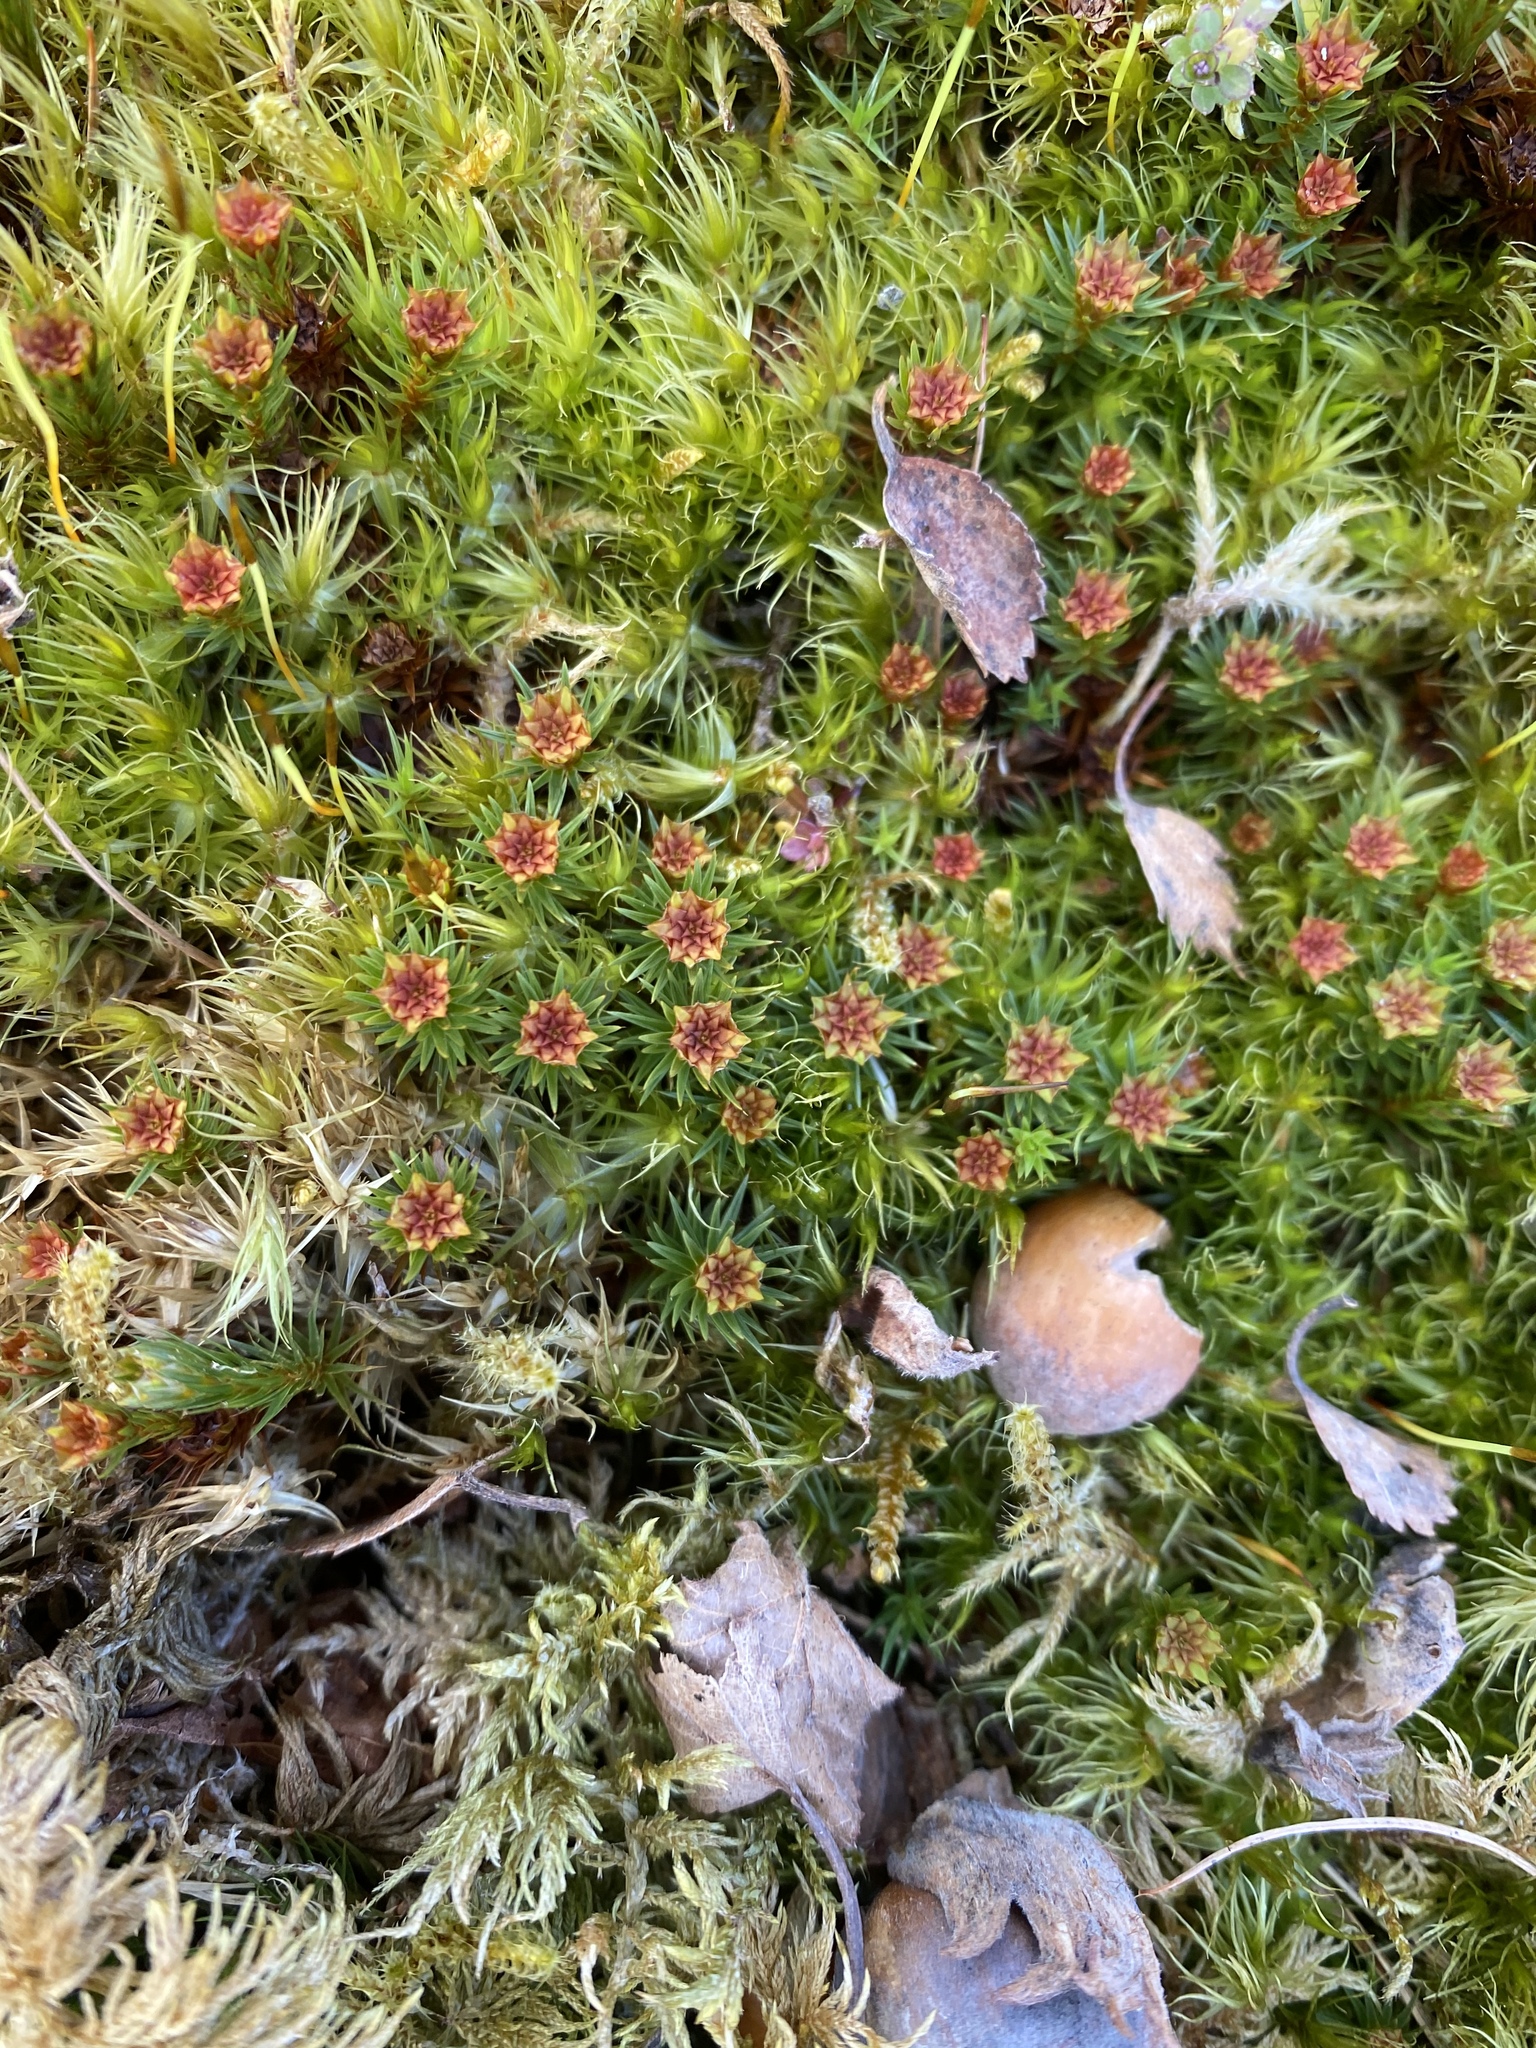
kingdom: Plantae
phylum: Bryophyta
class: Polytrichopsida
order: Polytrichales
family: Polytrichaceae
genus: Polytrichum
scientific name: Polytrichum juniperinum
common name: Juniper haircap moss
